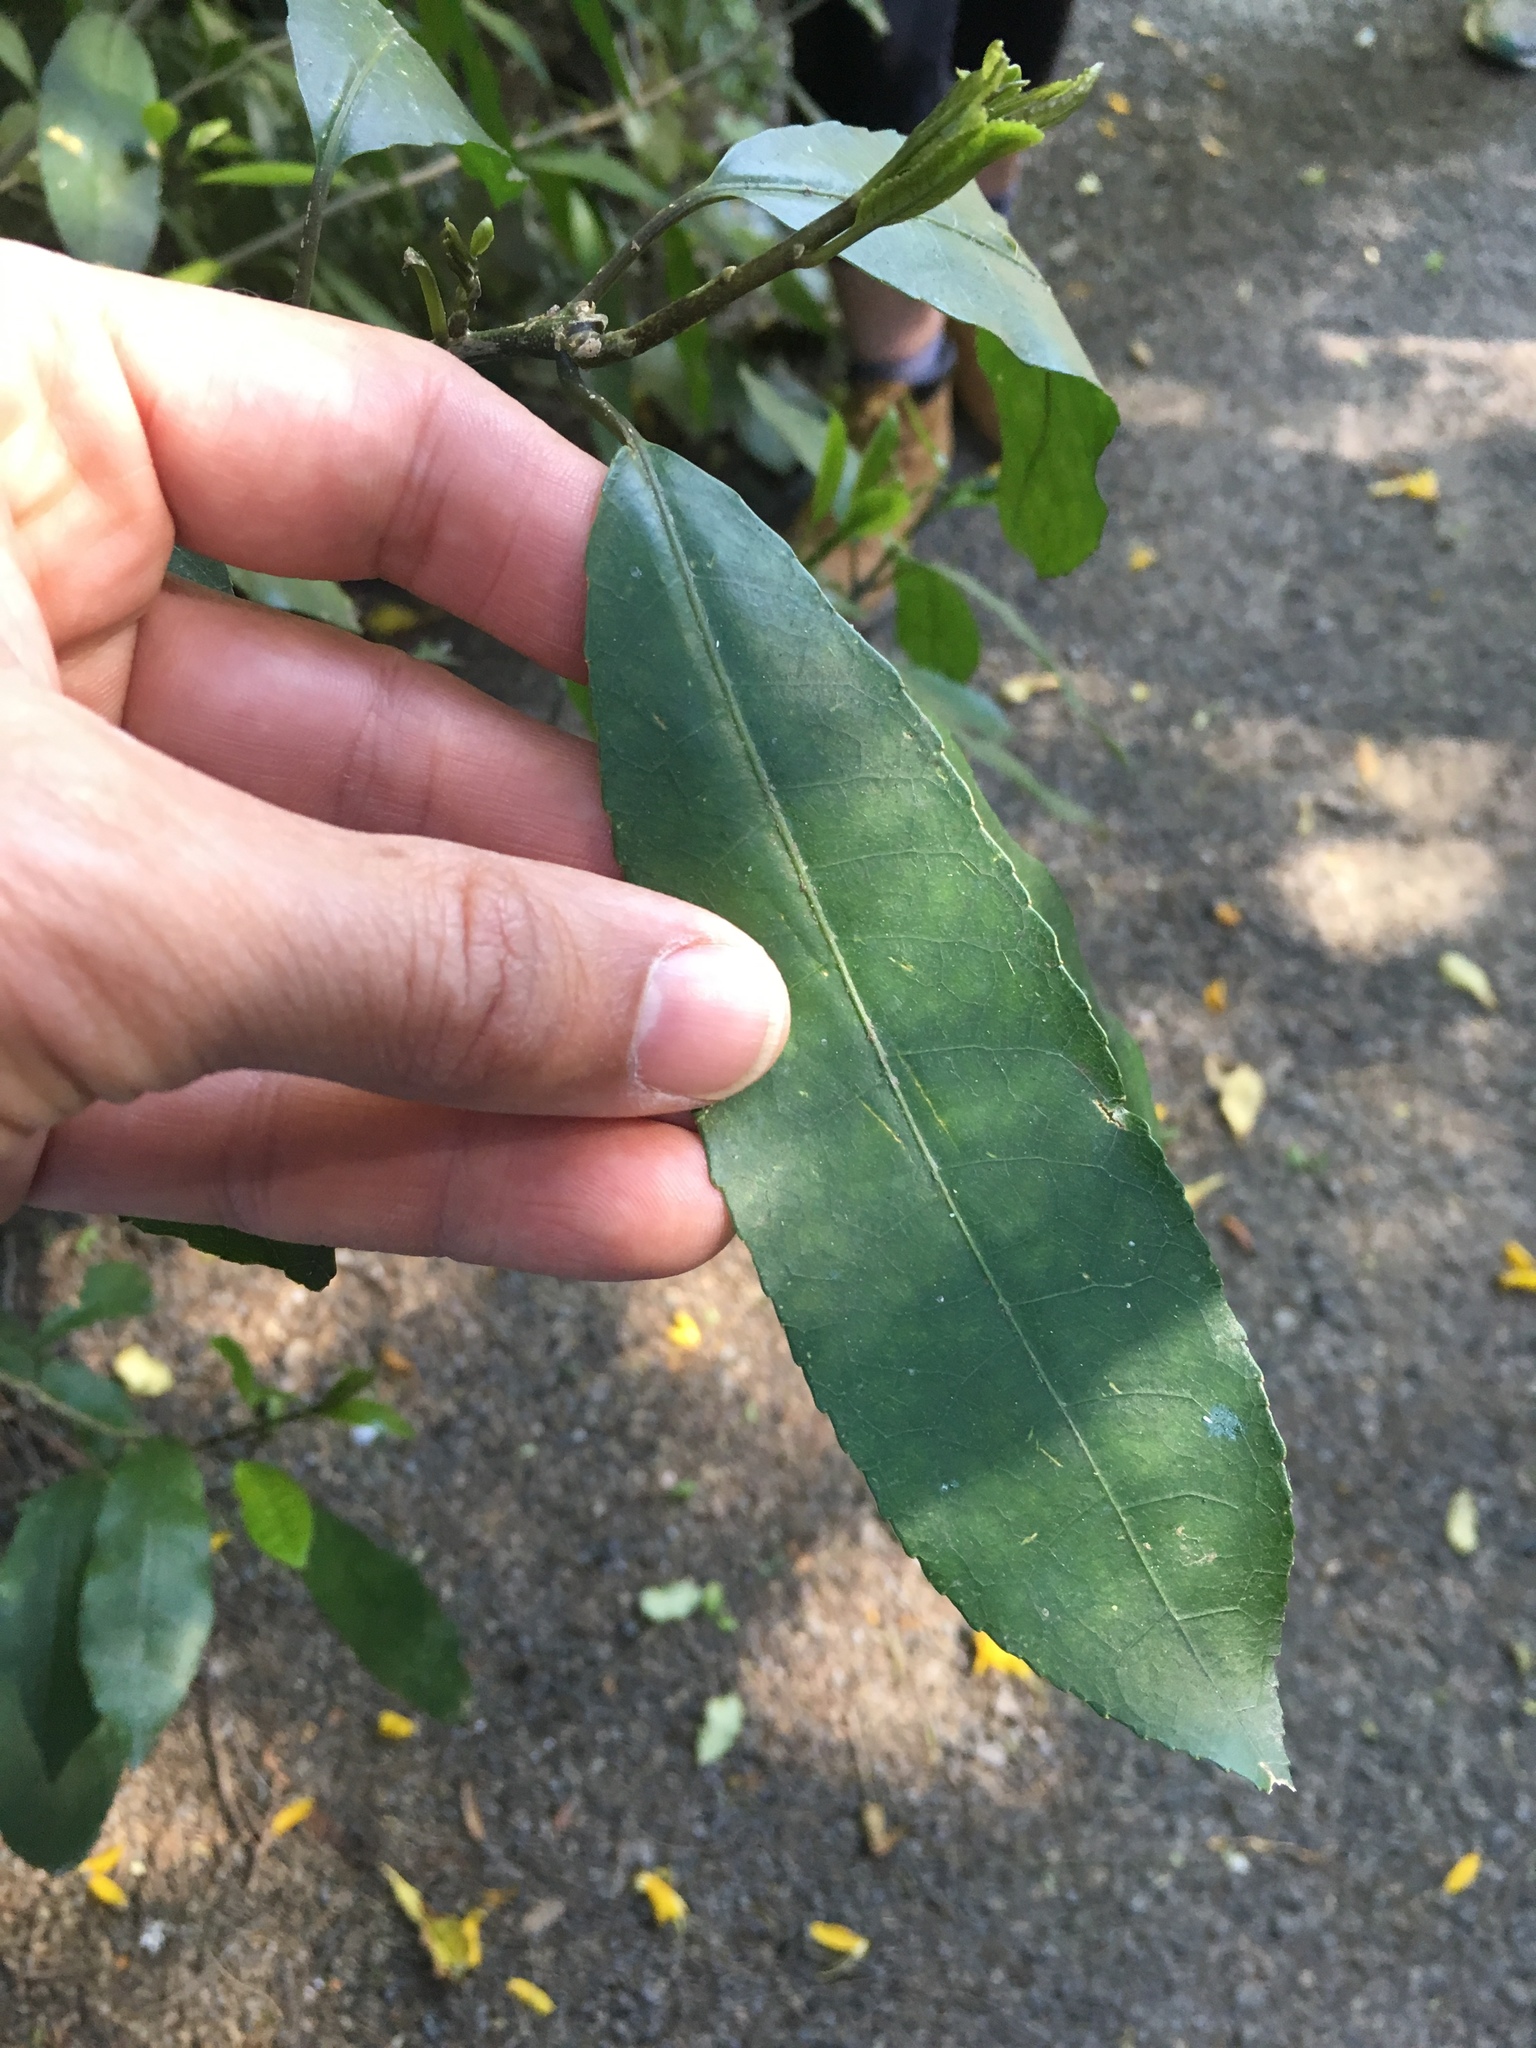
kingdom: Plantae
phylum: Tracheophyta
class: Magnoliopsida
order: Malpighiales
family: Violaceae
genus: Melicytus
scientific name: Melicytus ramiflorus
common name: Mahoe
